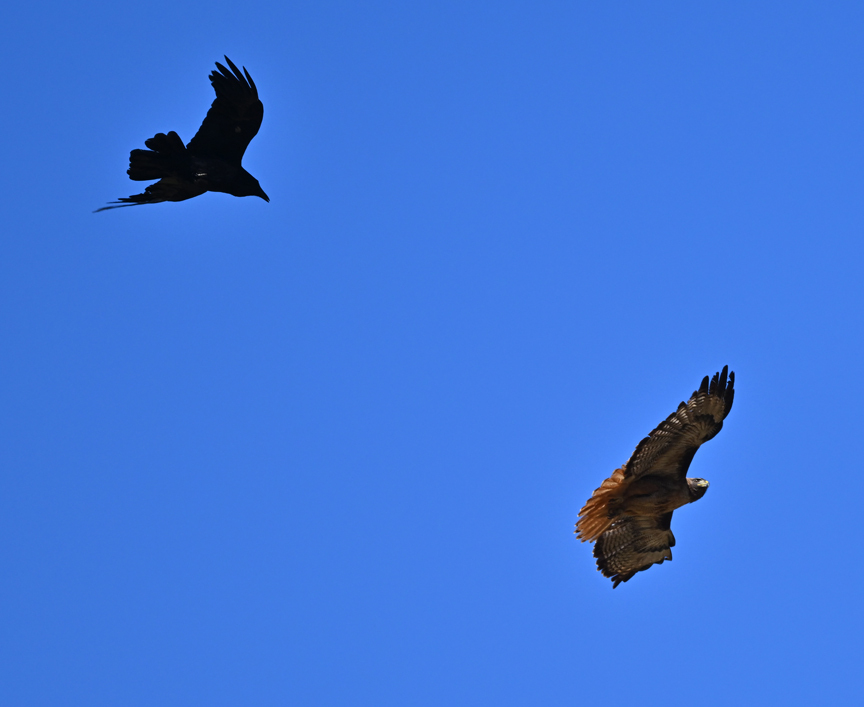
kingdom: Animalia
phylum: Chordata
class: Aves
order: Passeriformes
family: Corvidae
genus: Corvus
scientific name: Corvus corax
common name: Common raven
